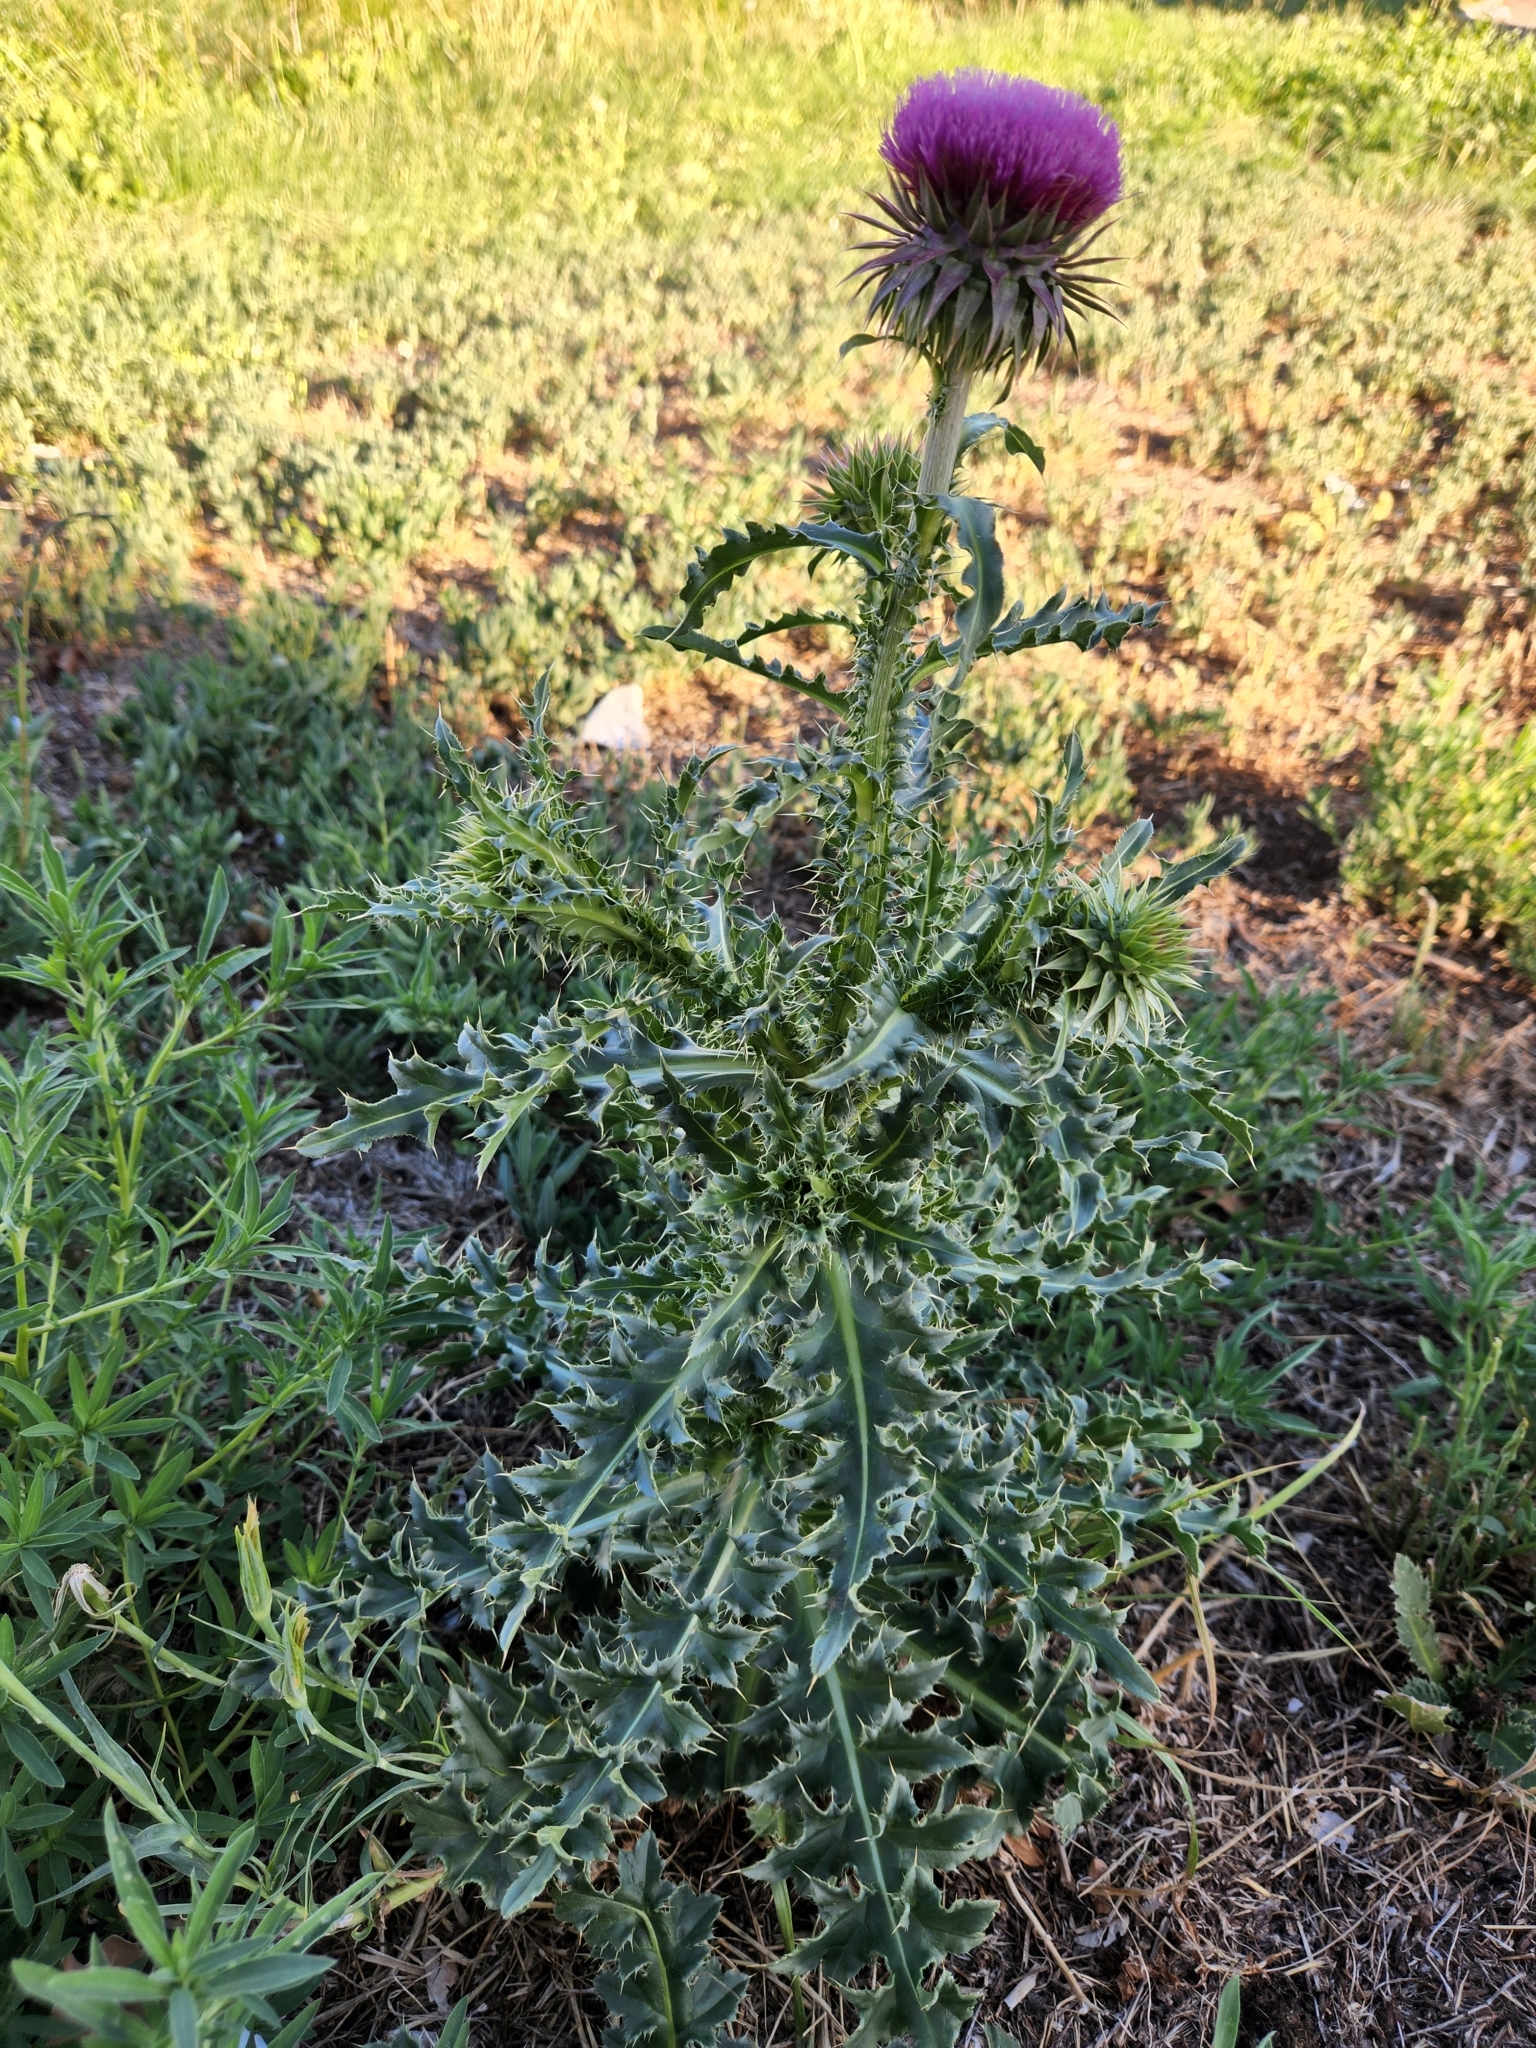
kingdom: Plantae
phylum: Tracheophyta
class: Magnoliopsida
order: Asterales
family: Asteraceae
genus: Carduus
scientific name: Carduus nutans
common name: Musk thistle
